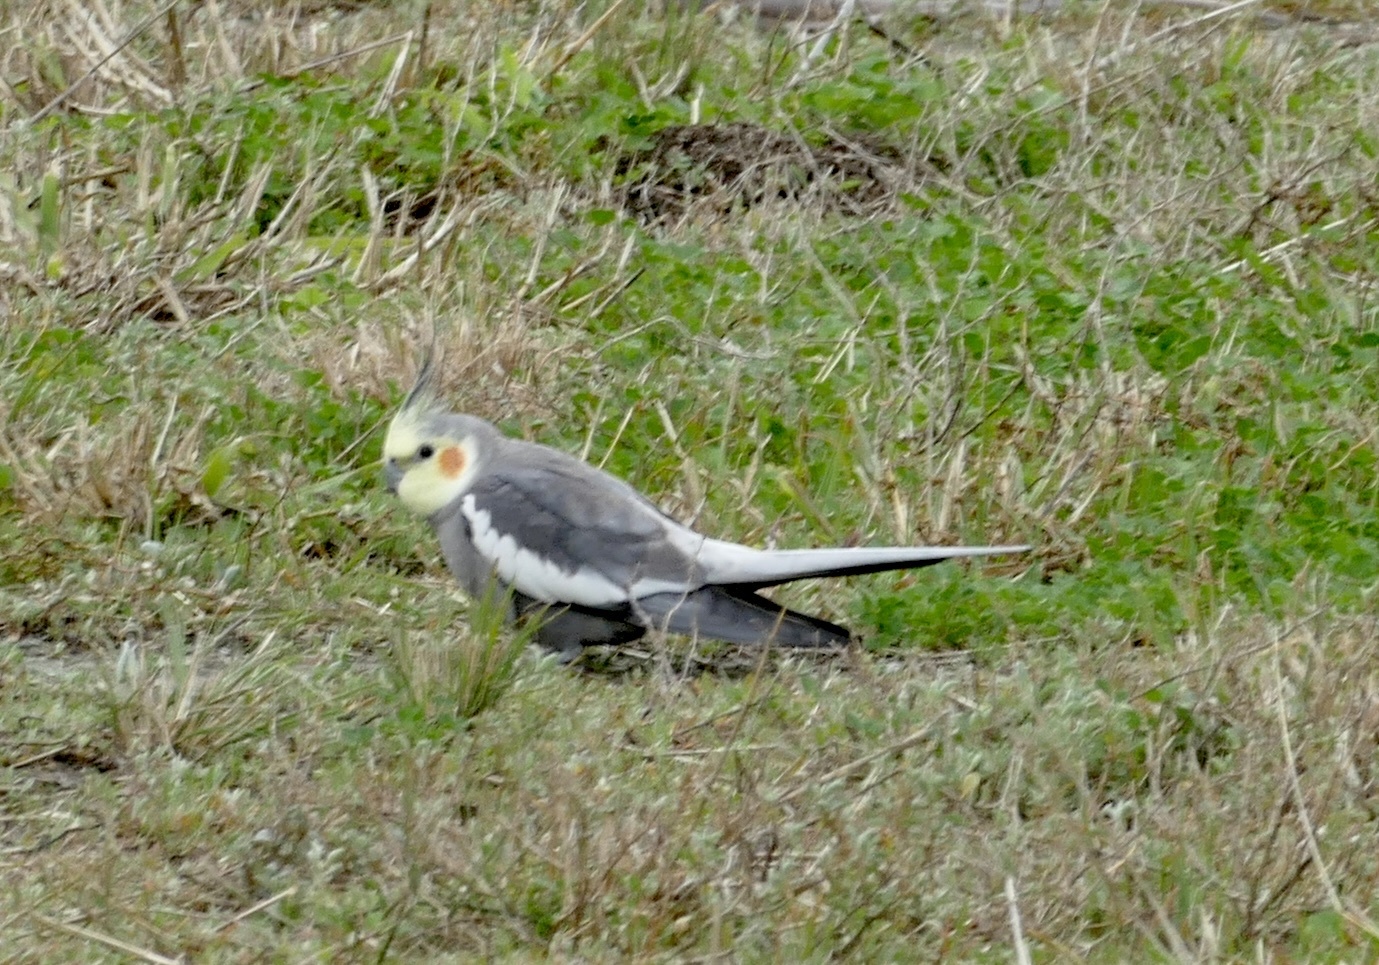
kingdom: Animalia
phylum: Chordata
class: Aves
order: Psittaciformes
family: Psittacidae
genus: Nymphicus
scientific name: Nymphicus hollandicus
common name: Cockatiel
